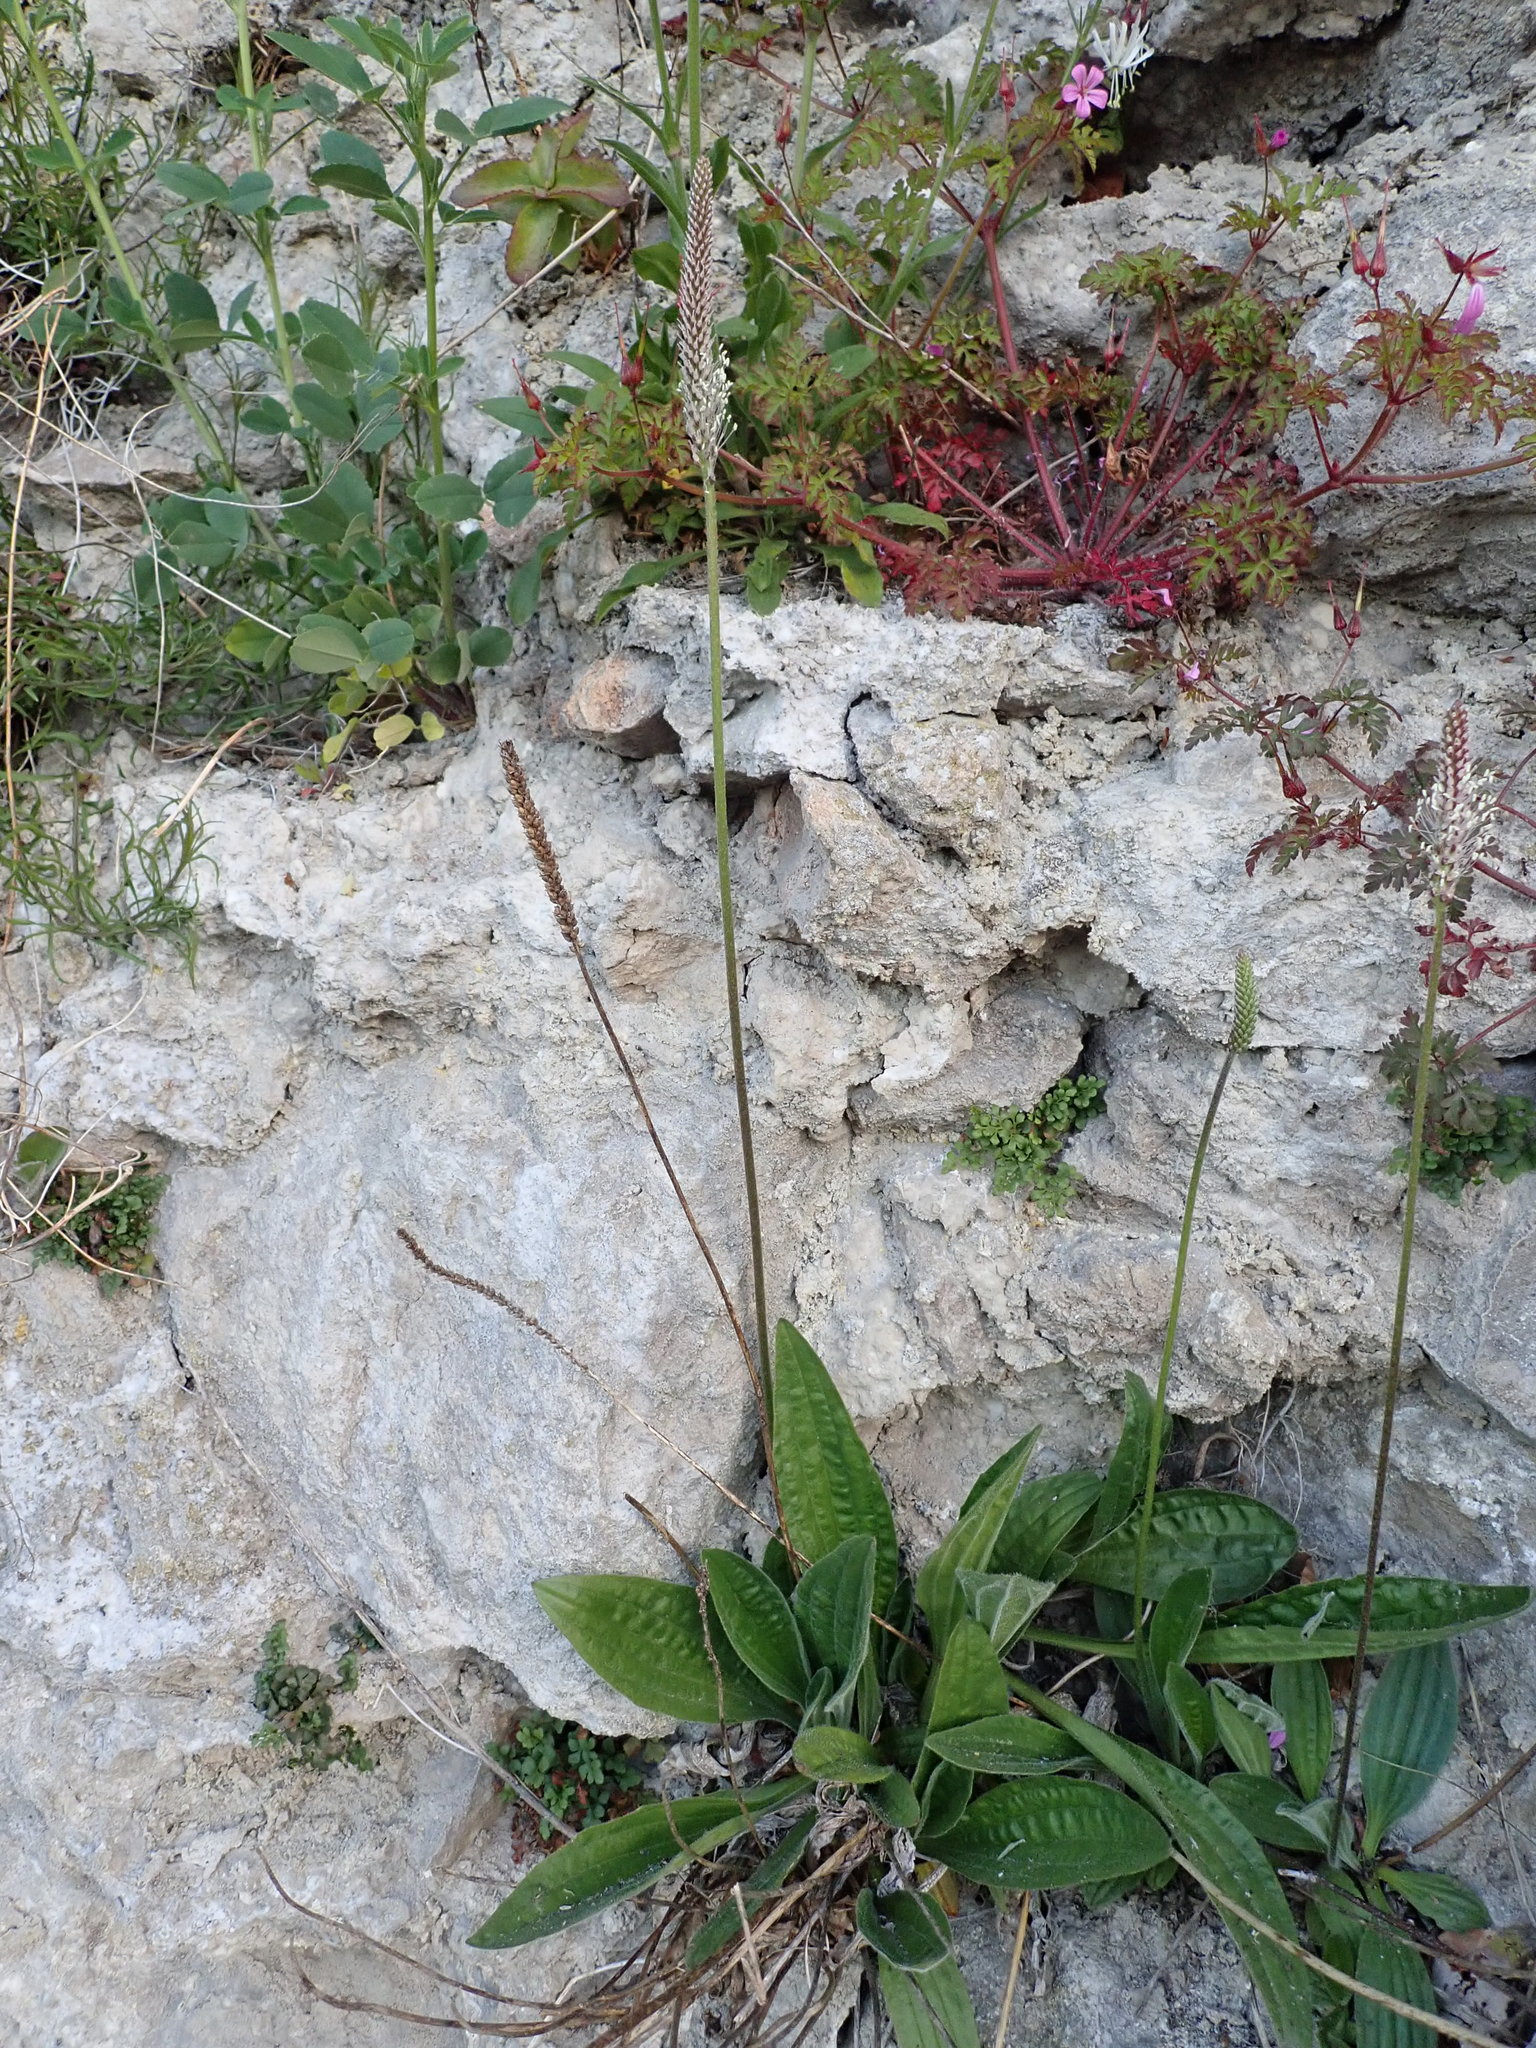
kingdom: Plantae
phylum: Tracheophyta
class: Magnoliopsida
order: Lamiales
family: Plantaginaceae
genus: Plantago
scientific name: Plantago media
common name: Hoary plantain
